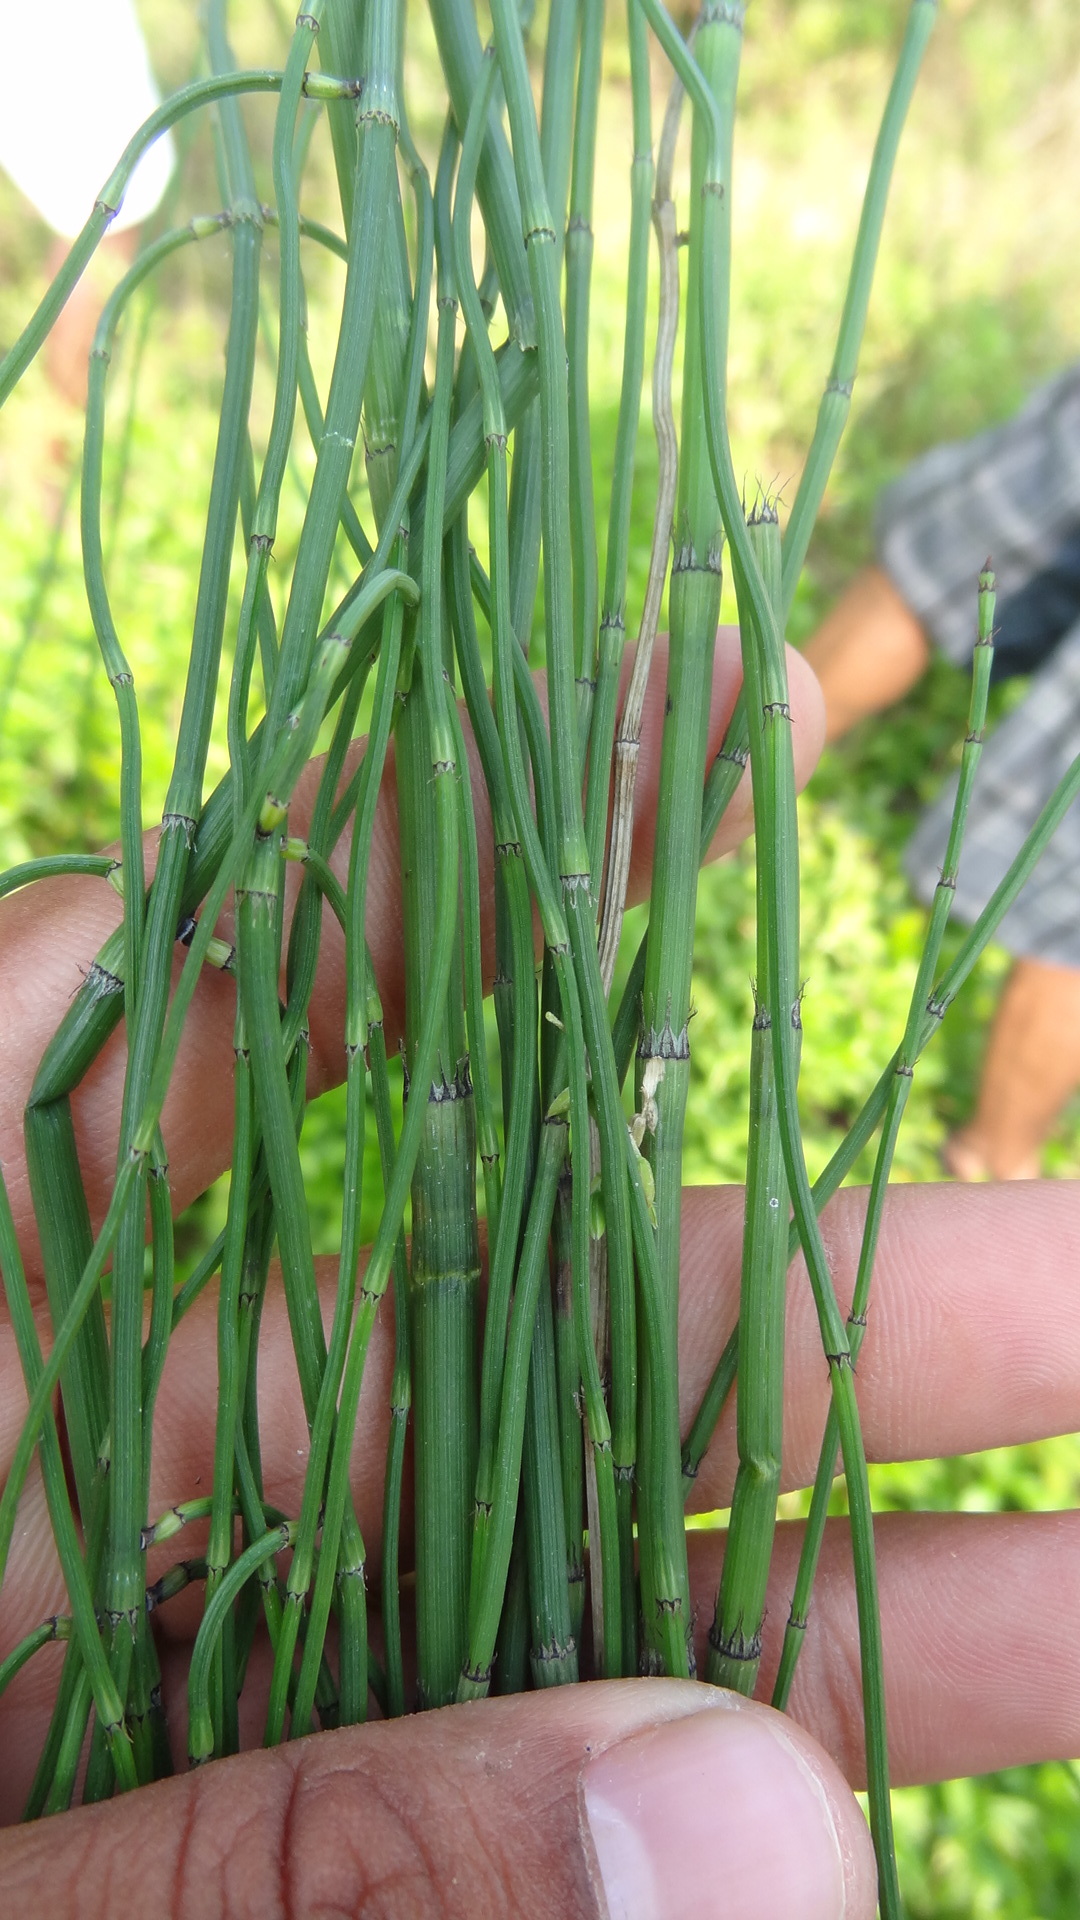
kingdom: Plantae
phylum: Tracheophyta
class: Polypodiopsida
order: Equisetales
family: Equisetaceae
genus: Equisetum
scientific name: Equisetum ramosissimum
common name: Branched horsetail
